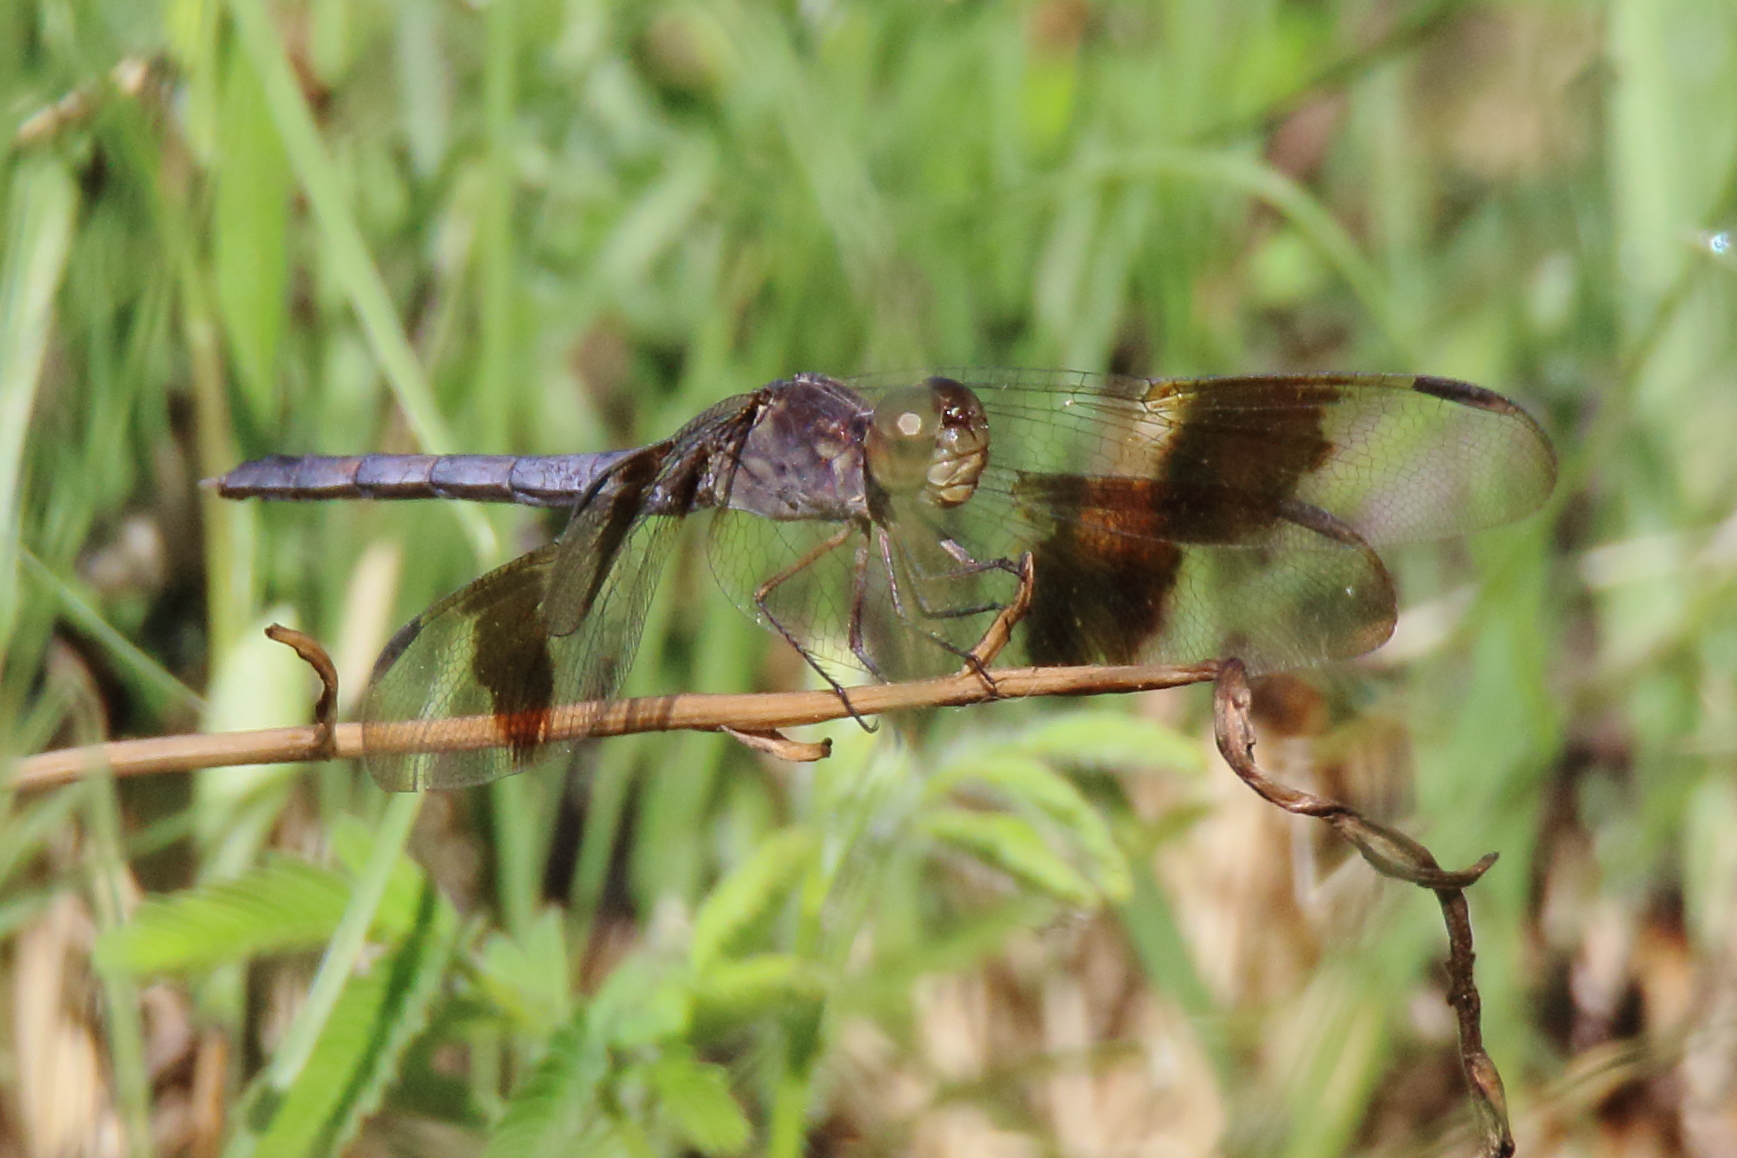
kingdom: Animalia
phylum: Arthropoda
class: Insecta
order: Odonata
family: Libellulidae
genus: Erythrodiplax
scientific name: Erythrodiplax umbrata
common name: Band-winged dragonlet
